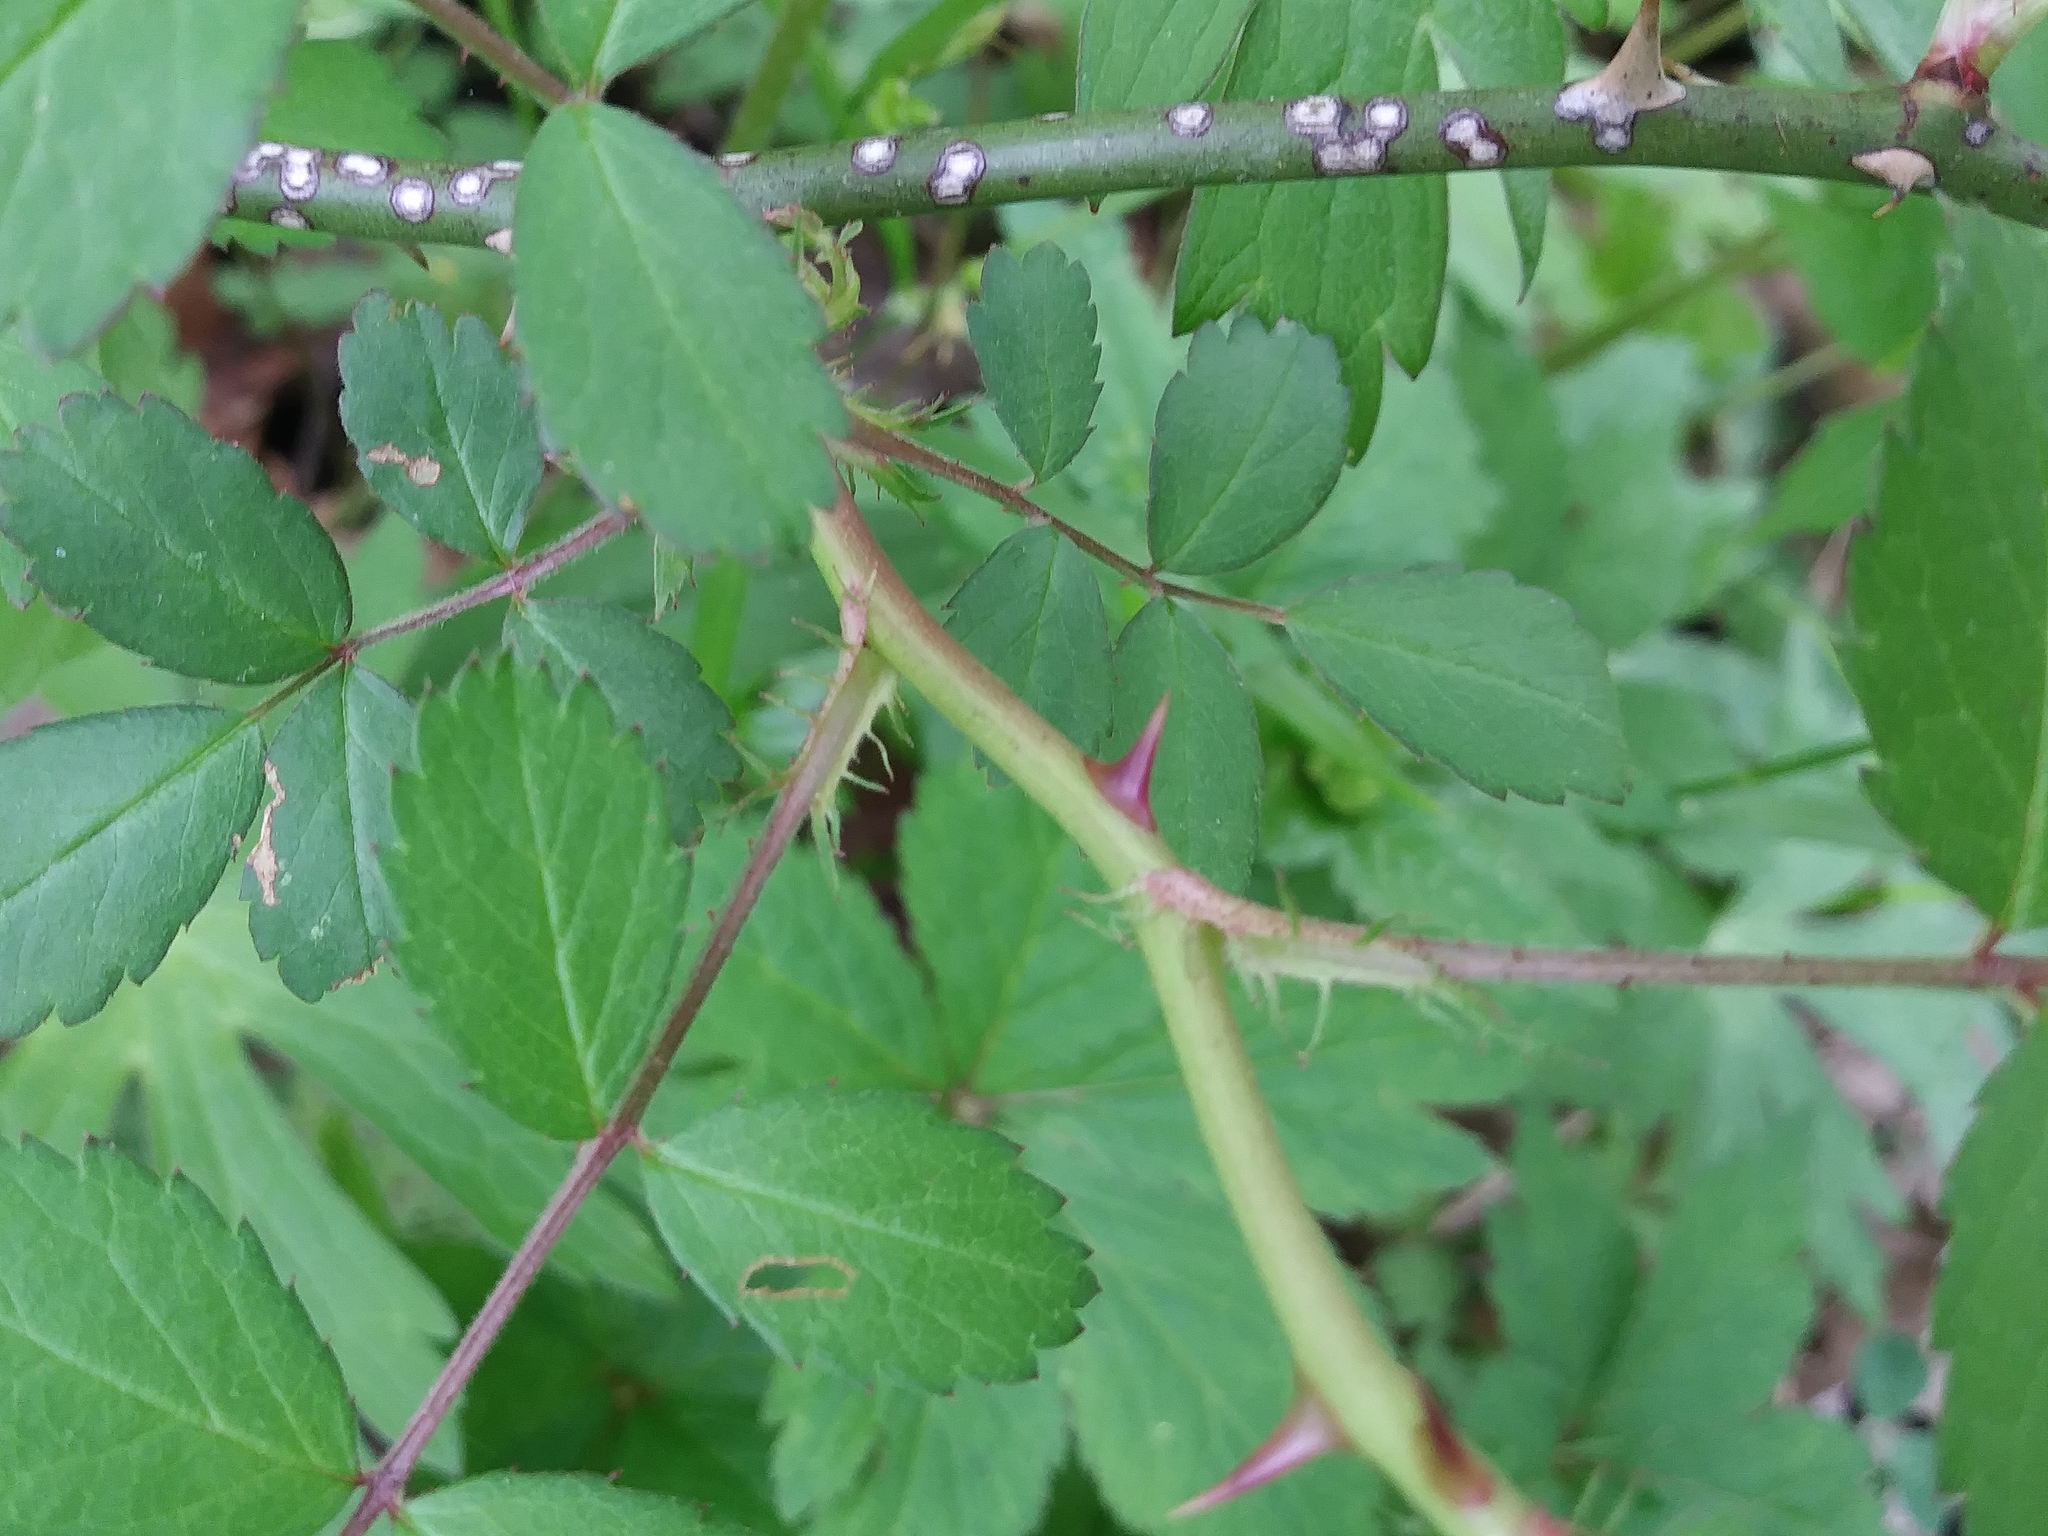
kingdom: Plantae
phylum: Tracheophyta
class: Magnoliopsida
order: Rosales
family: Rosaceae
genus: Rosa
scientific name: Rosa multiflora
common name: Multiflora rose
